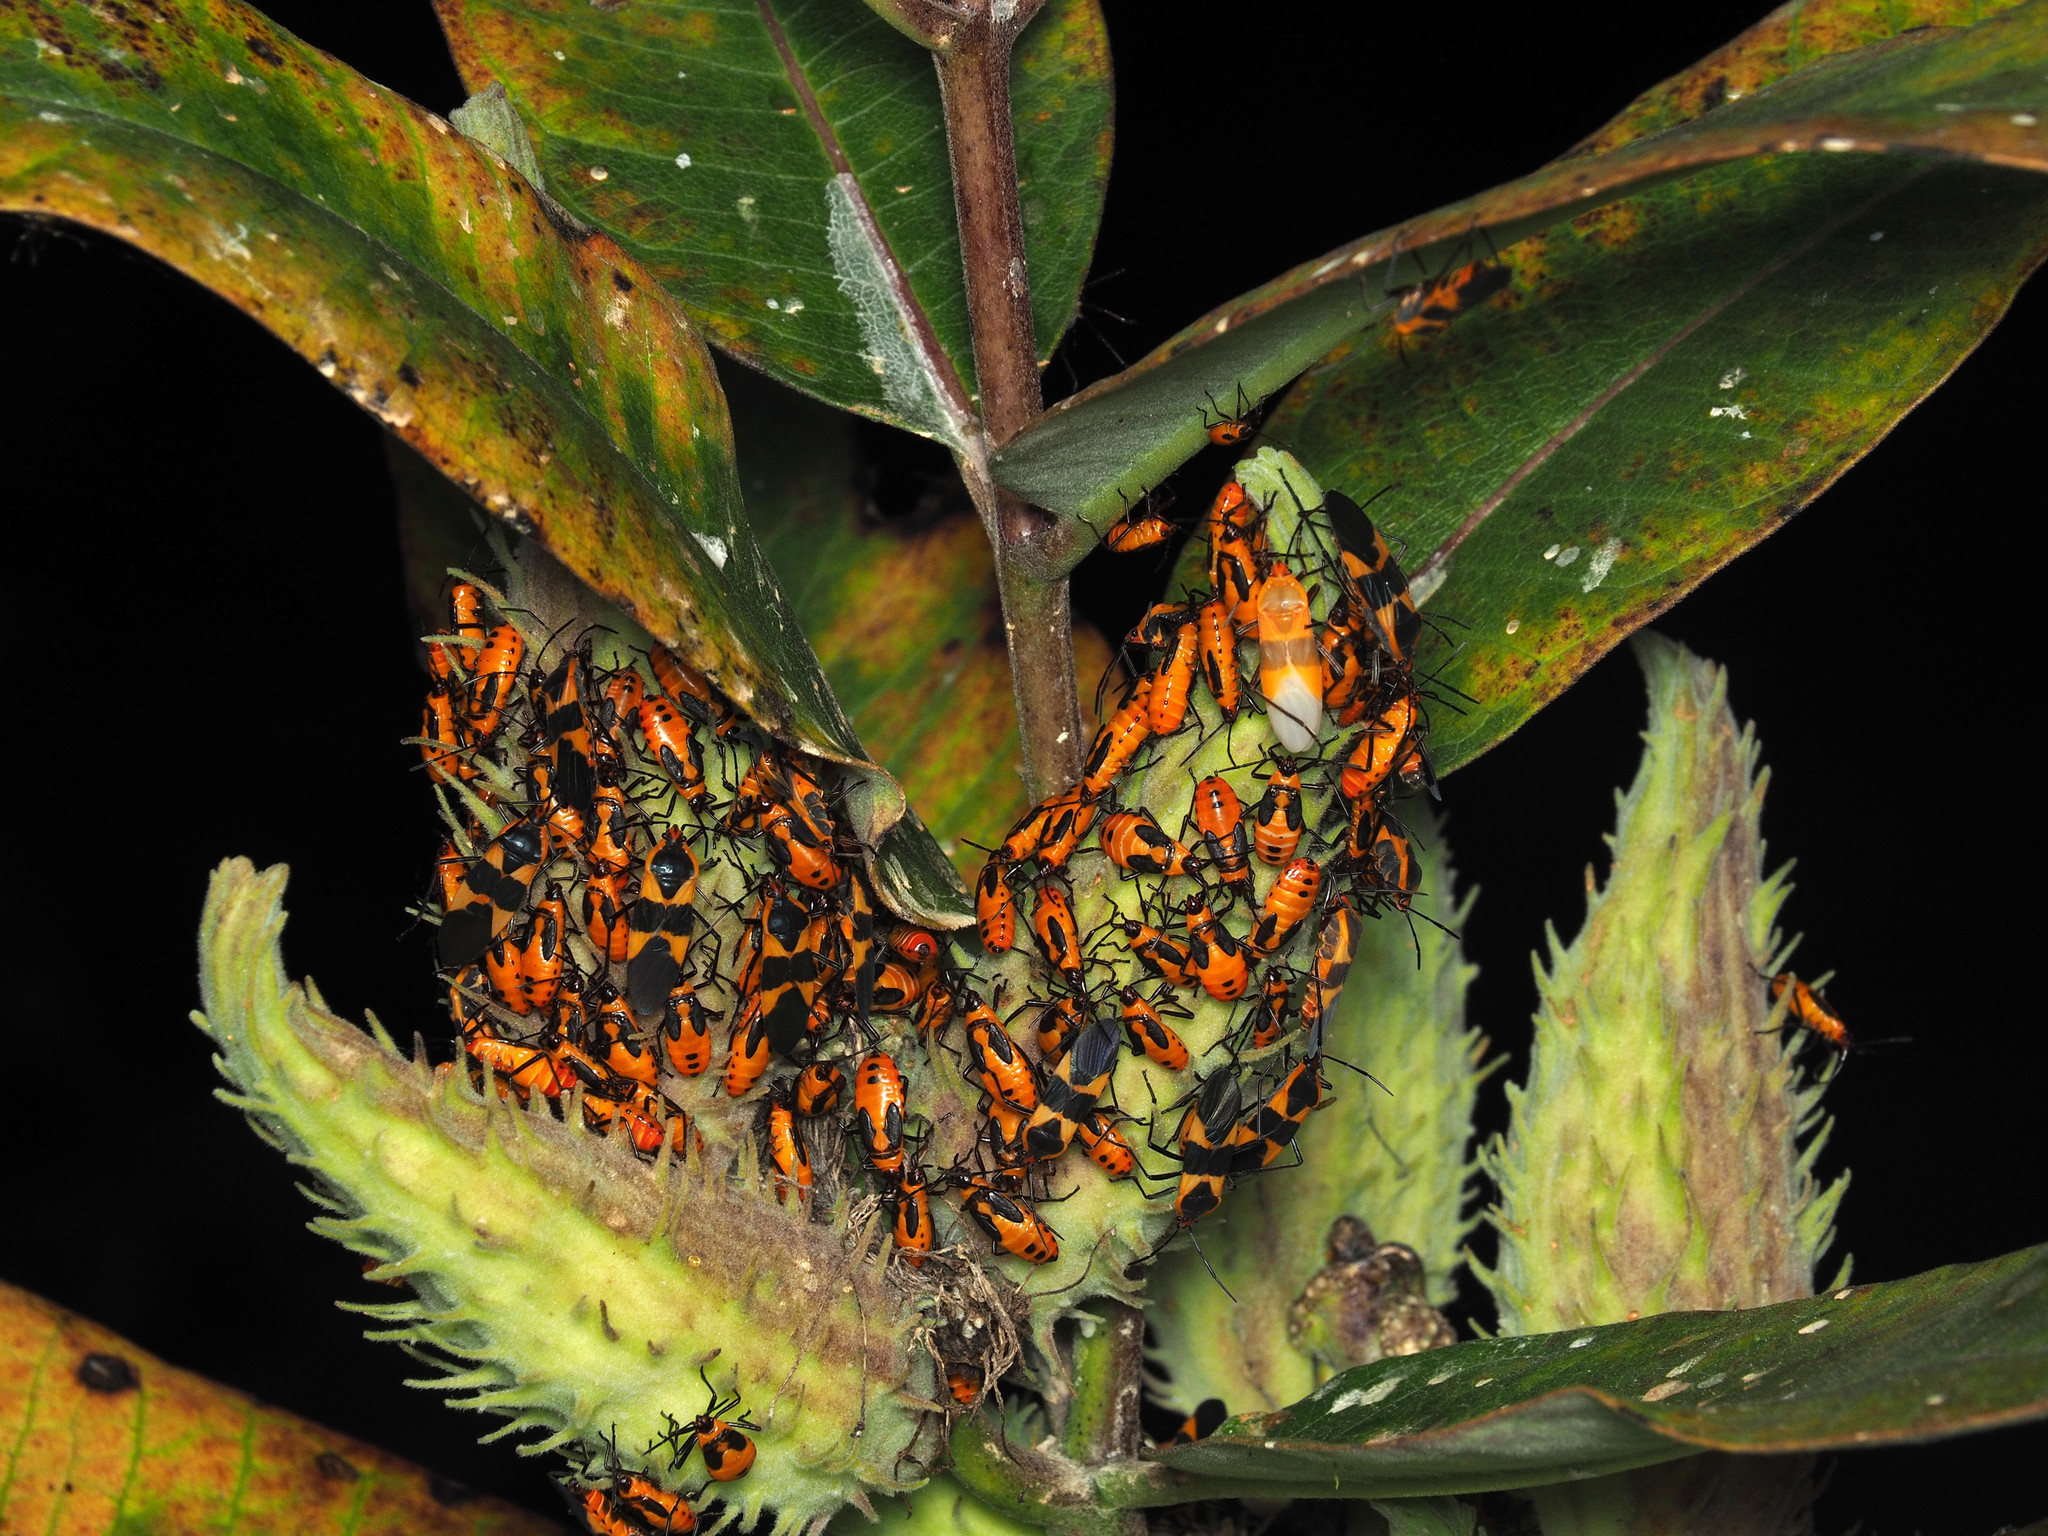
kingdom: Animalia
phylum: Arthropoda
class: Insecta
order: Hemiptera
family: Lygaeidae
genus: Oncopeltus
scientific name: Oncopeltus fasciatus
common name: Large milkweed bug
